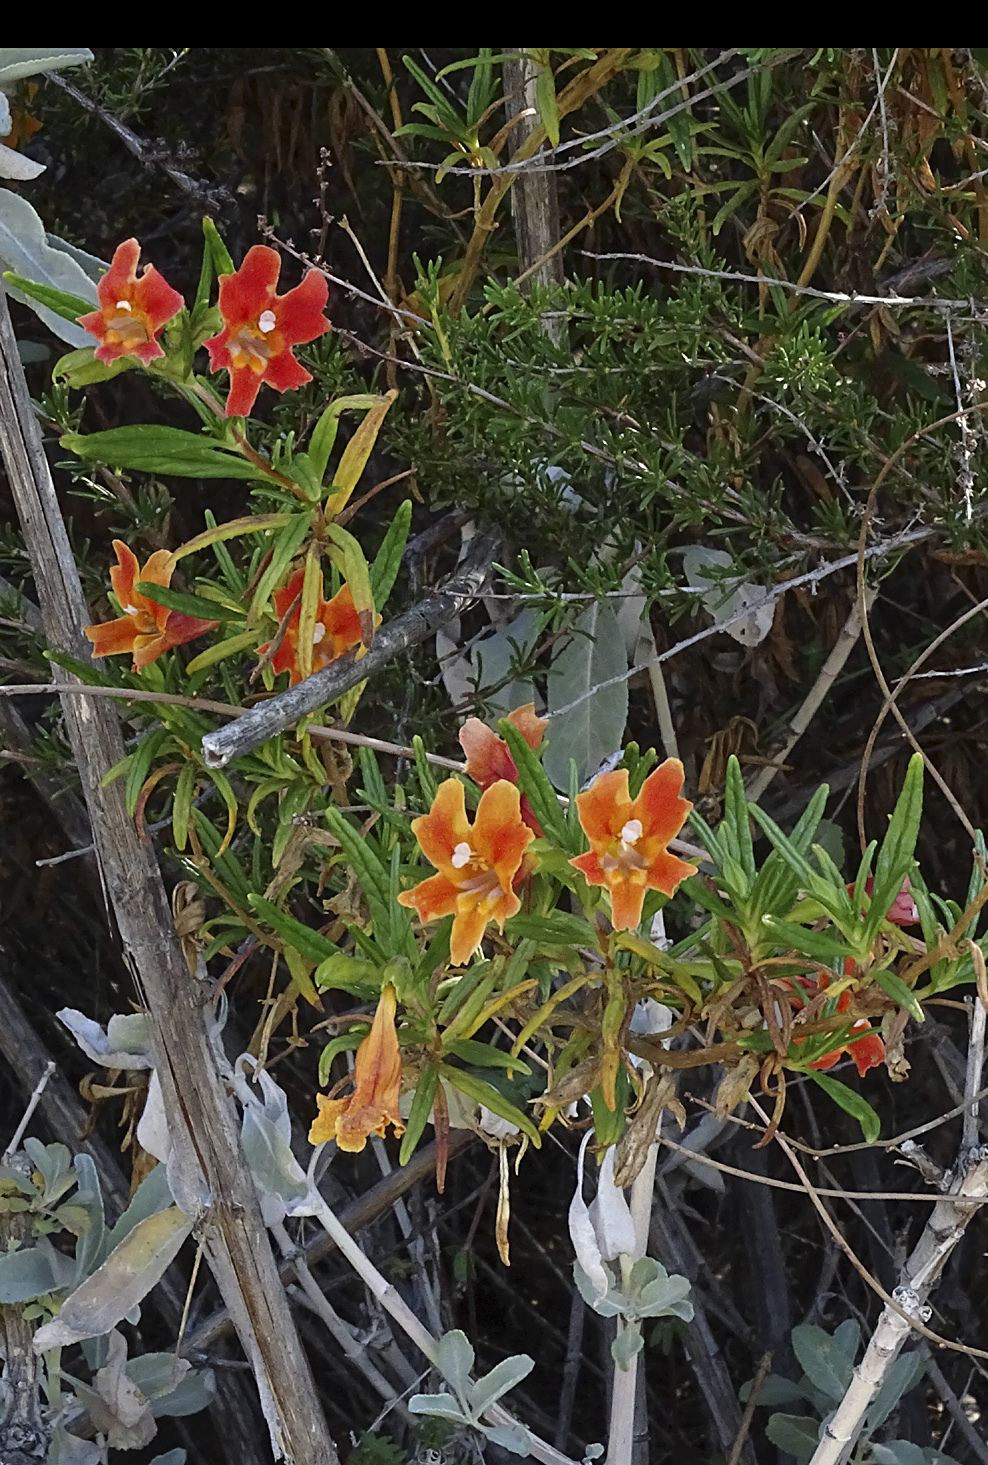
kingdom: Plantae
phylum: Tracheophyta
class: Magnoliopsida
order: Lamiales
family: Phrymaceae
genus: Diplacus
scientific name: Diplacus australis
